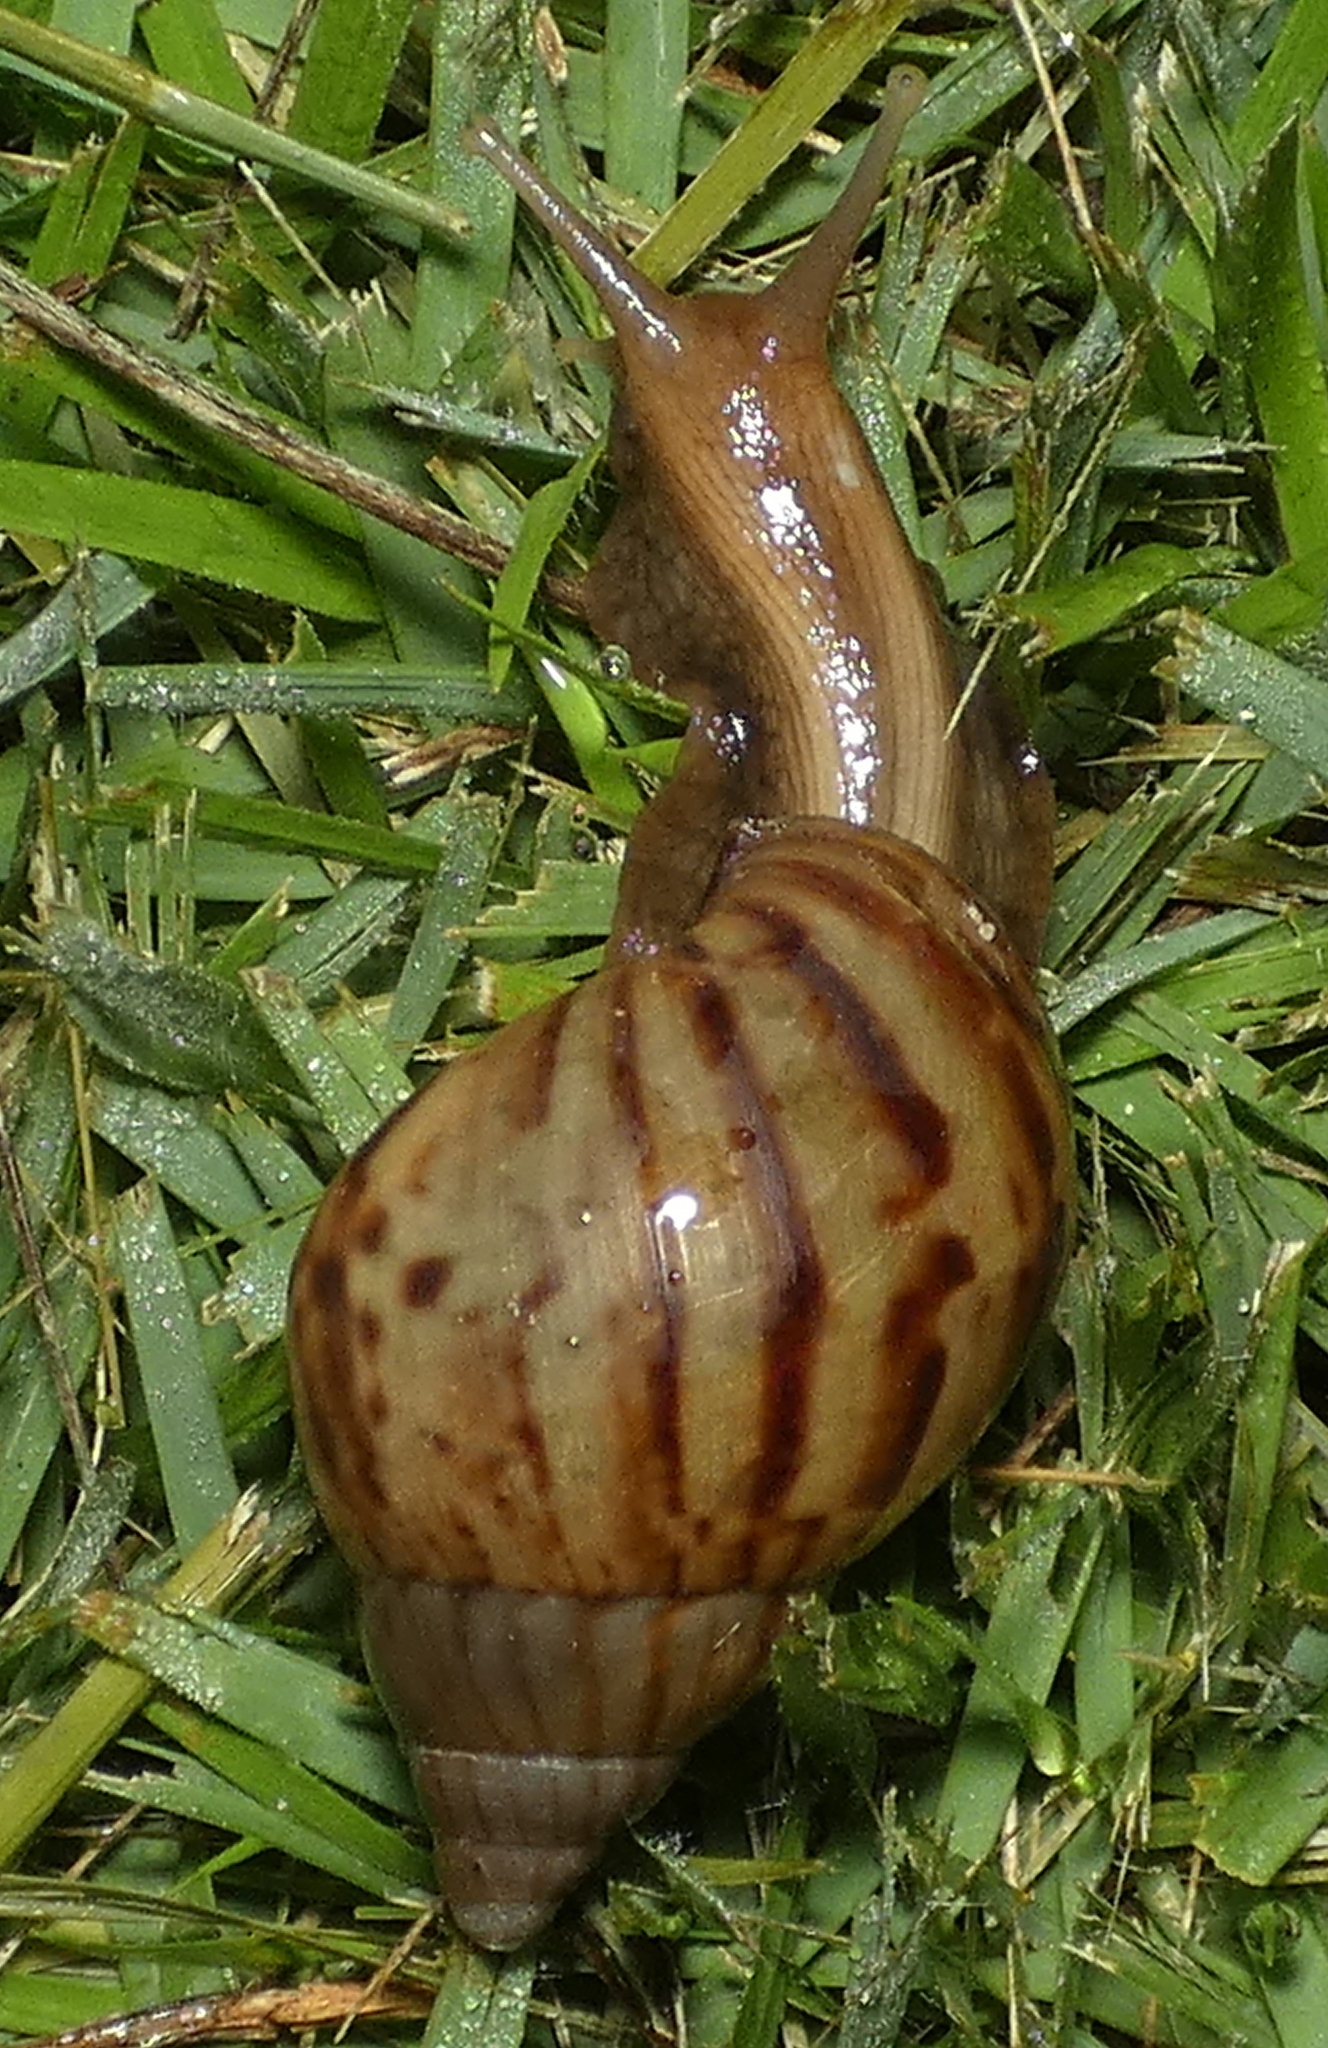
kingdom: Animalia
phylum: Mollusca
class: Gastropoda
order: Stylommatophora
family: Achatinidae
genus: Lissachatina
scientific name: Lissachatina fulica
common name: Giant african snail
